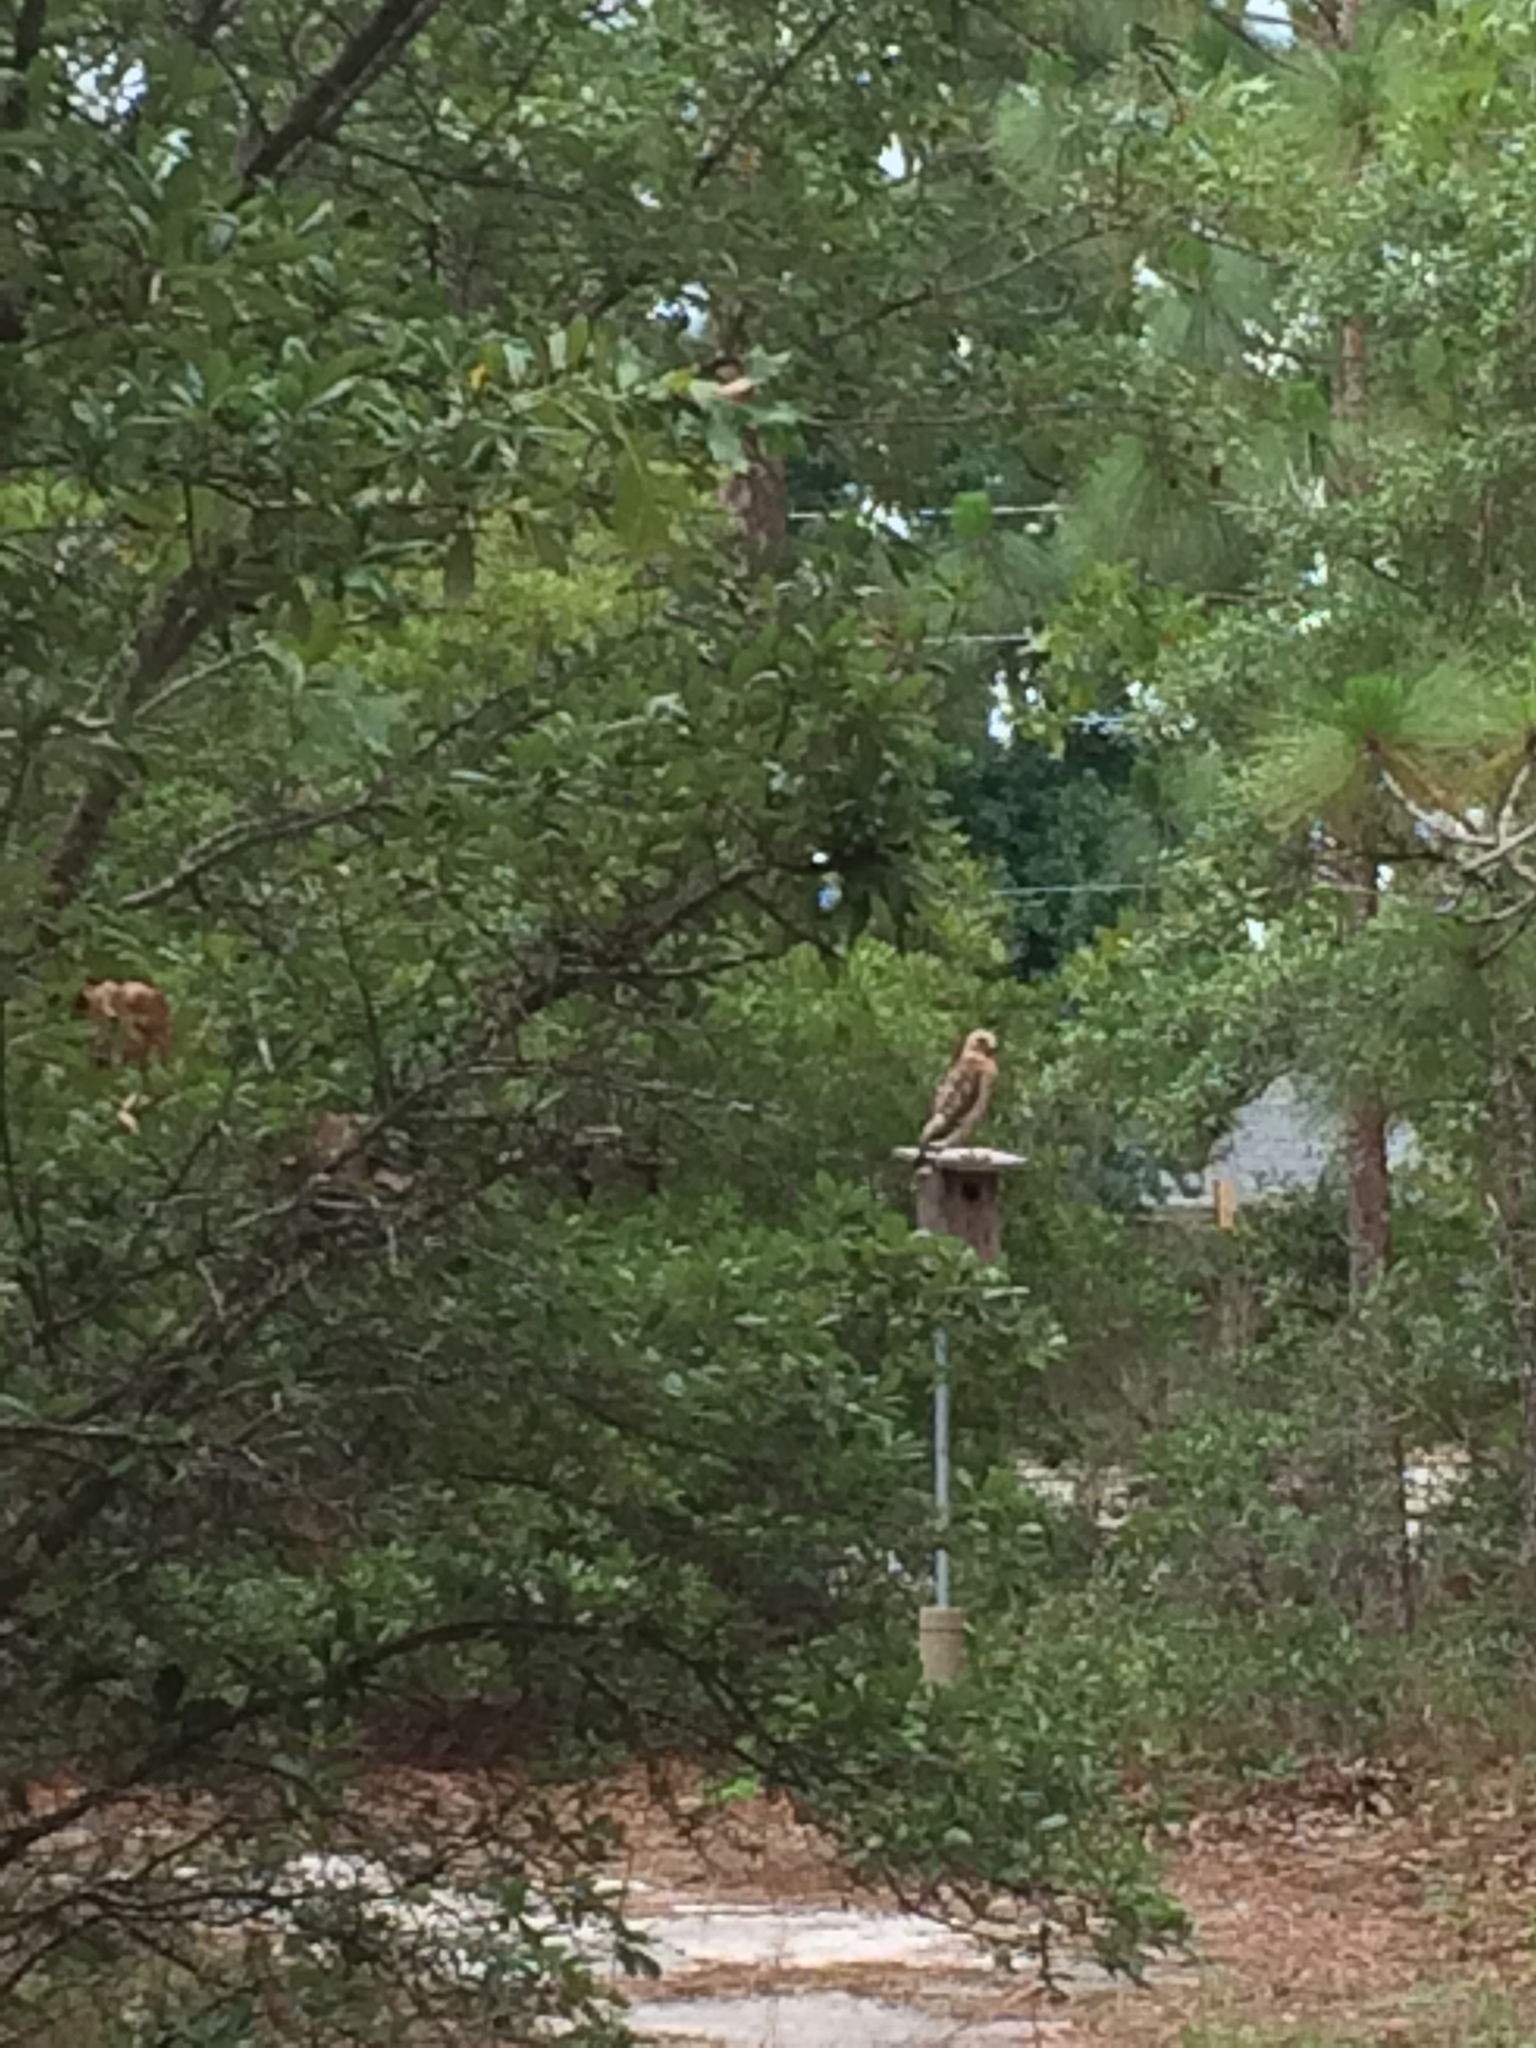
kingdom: Animalia
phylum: Chordata
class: Aves
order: Accipitriformes
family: Accipitridae
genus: Buteo
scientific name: Buteo lineatus
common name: Red-shouldered hawk
